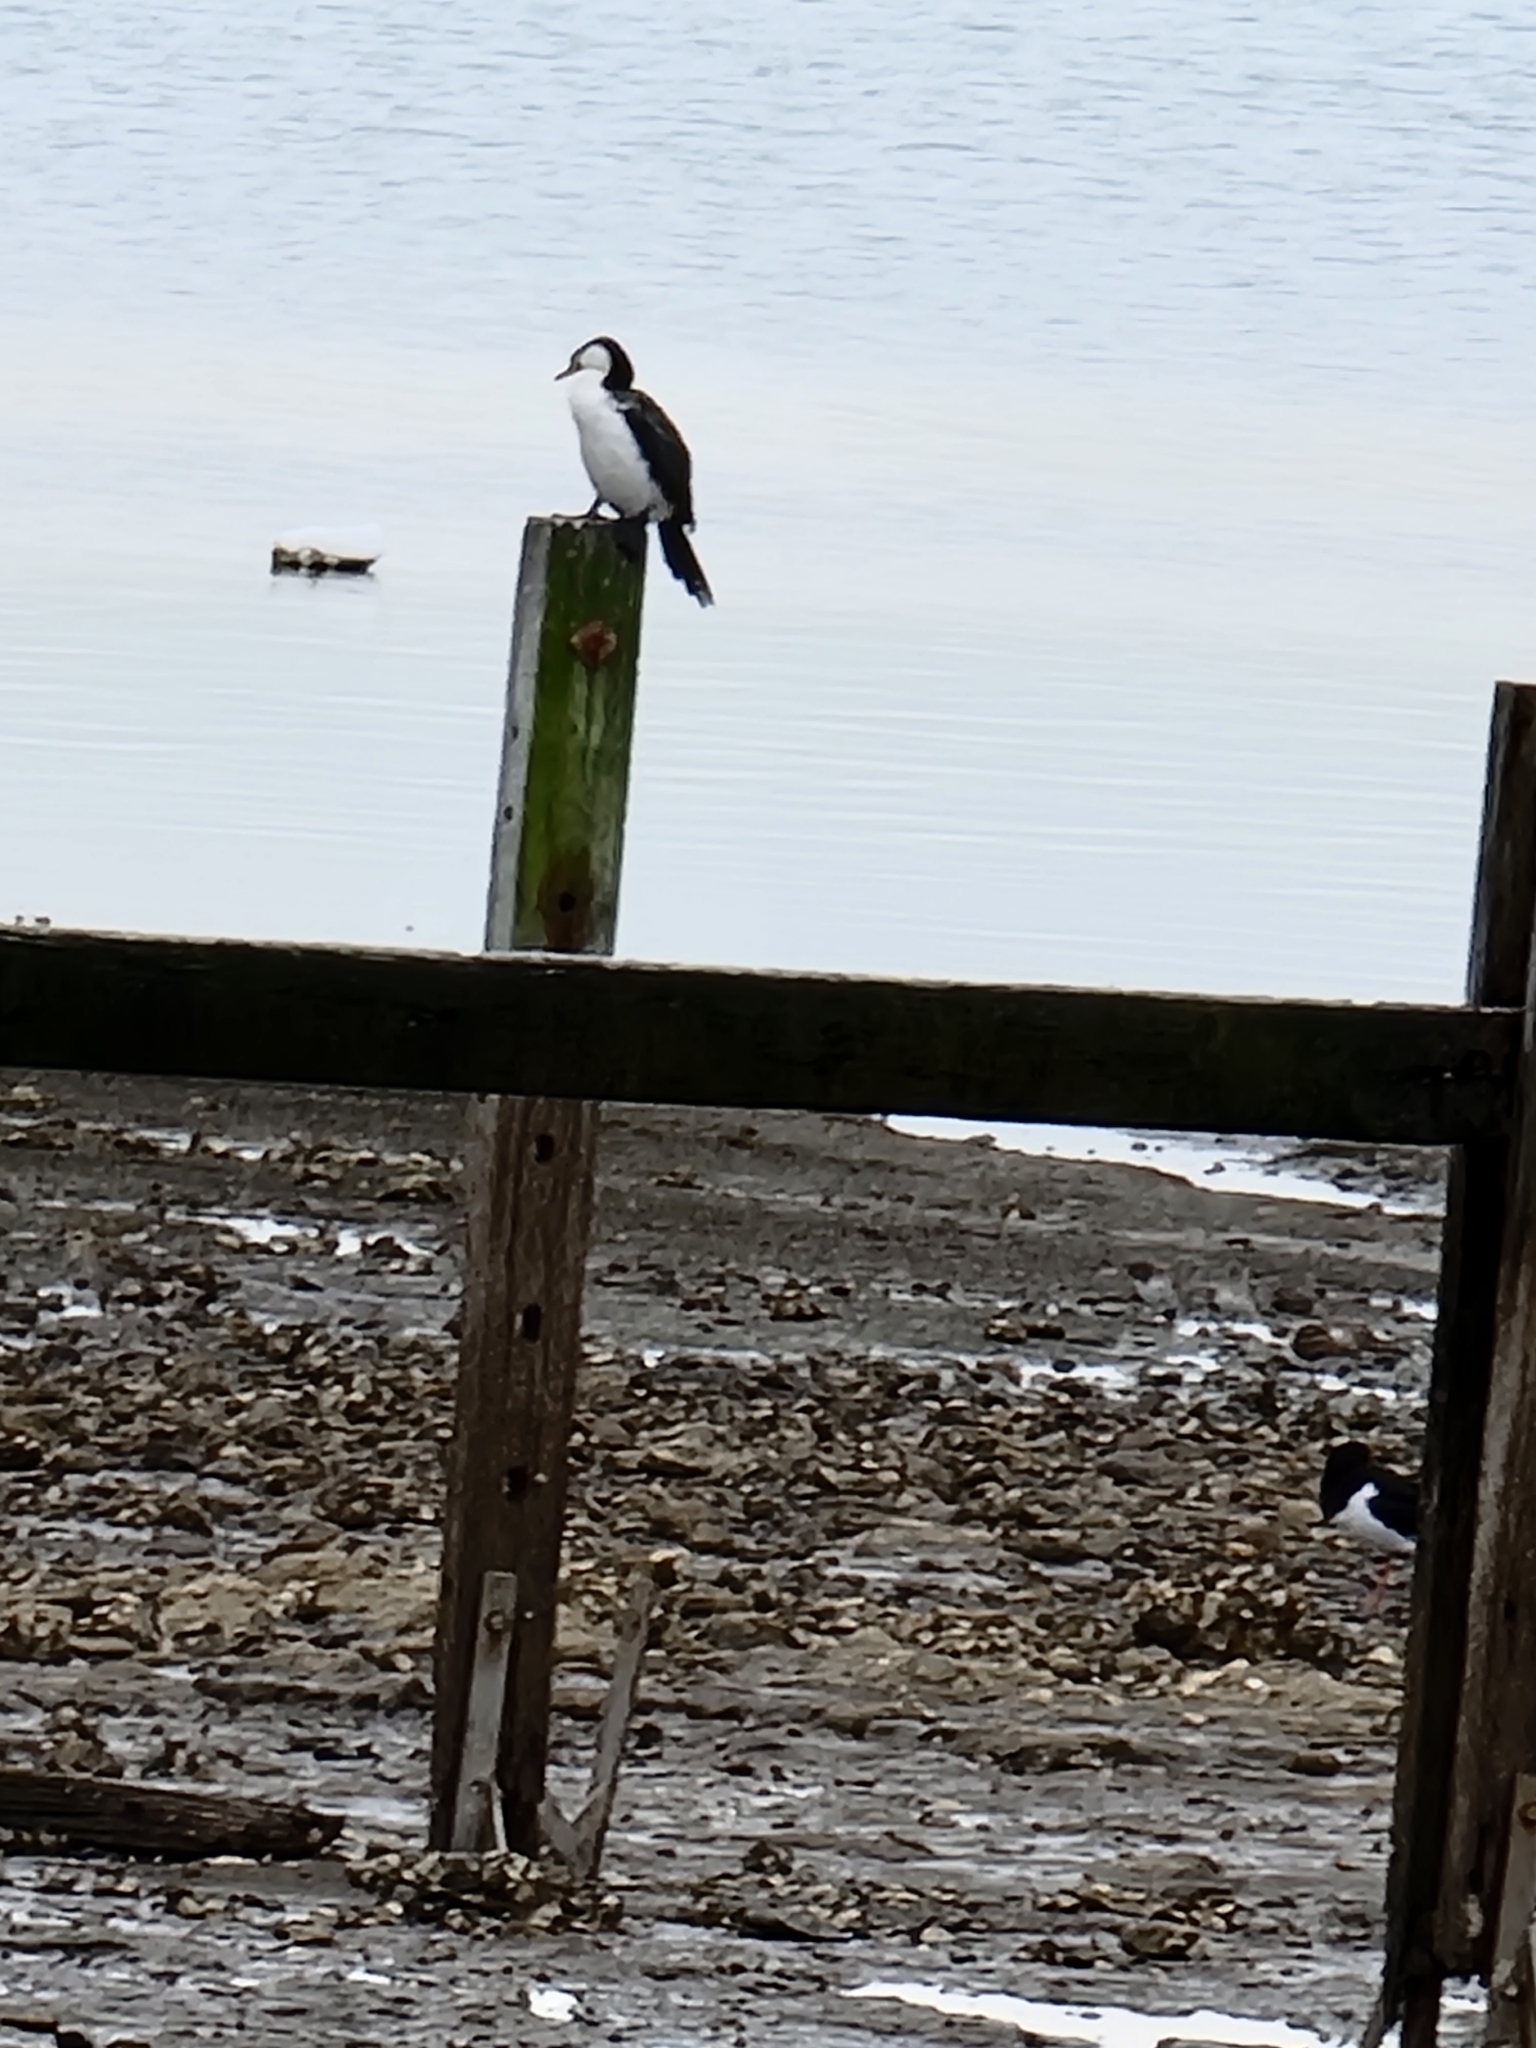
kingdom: Animalia
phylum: Chordata
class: Aves
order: Suliformes
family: Phalacrocoracidae
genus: Microcarbo
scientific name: Microcarbo melanoleucos
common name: Little pied cormorant
